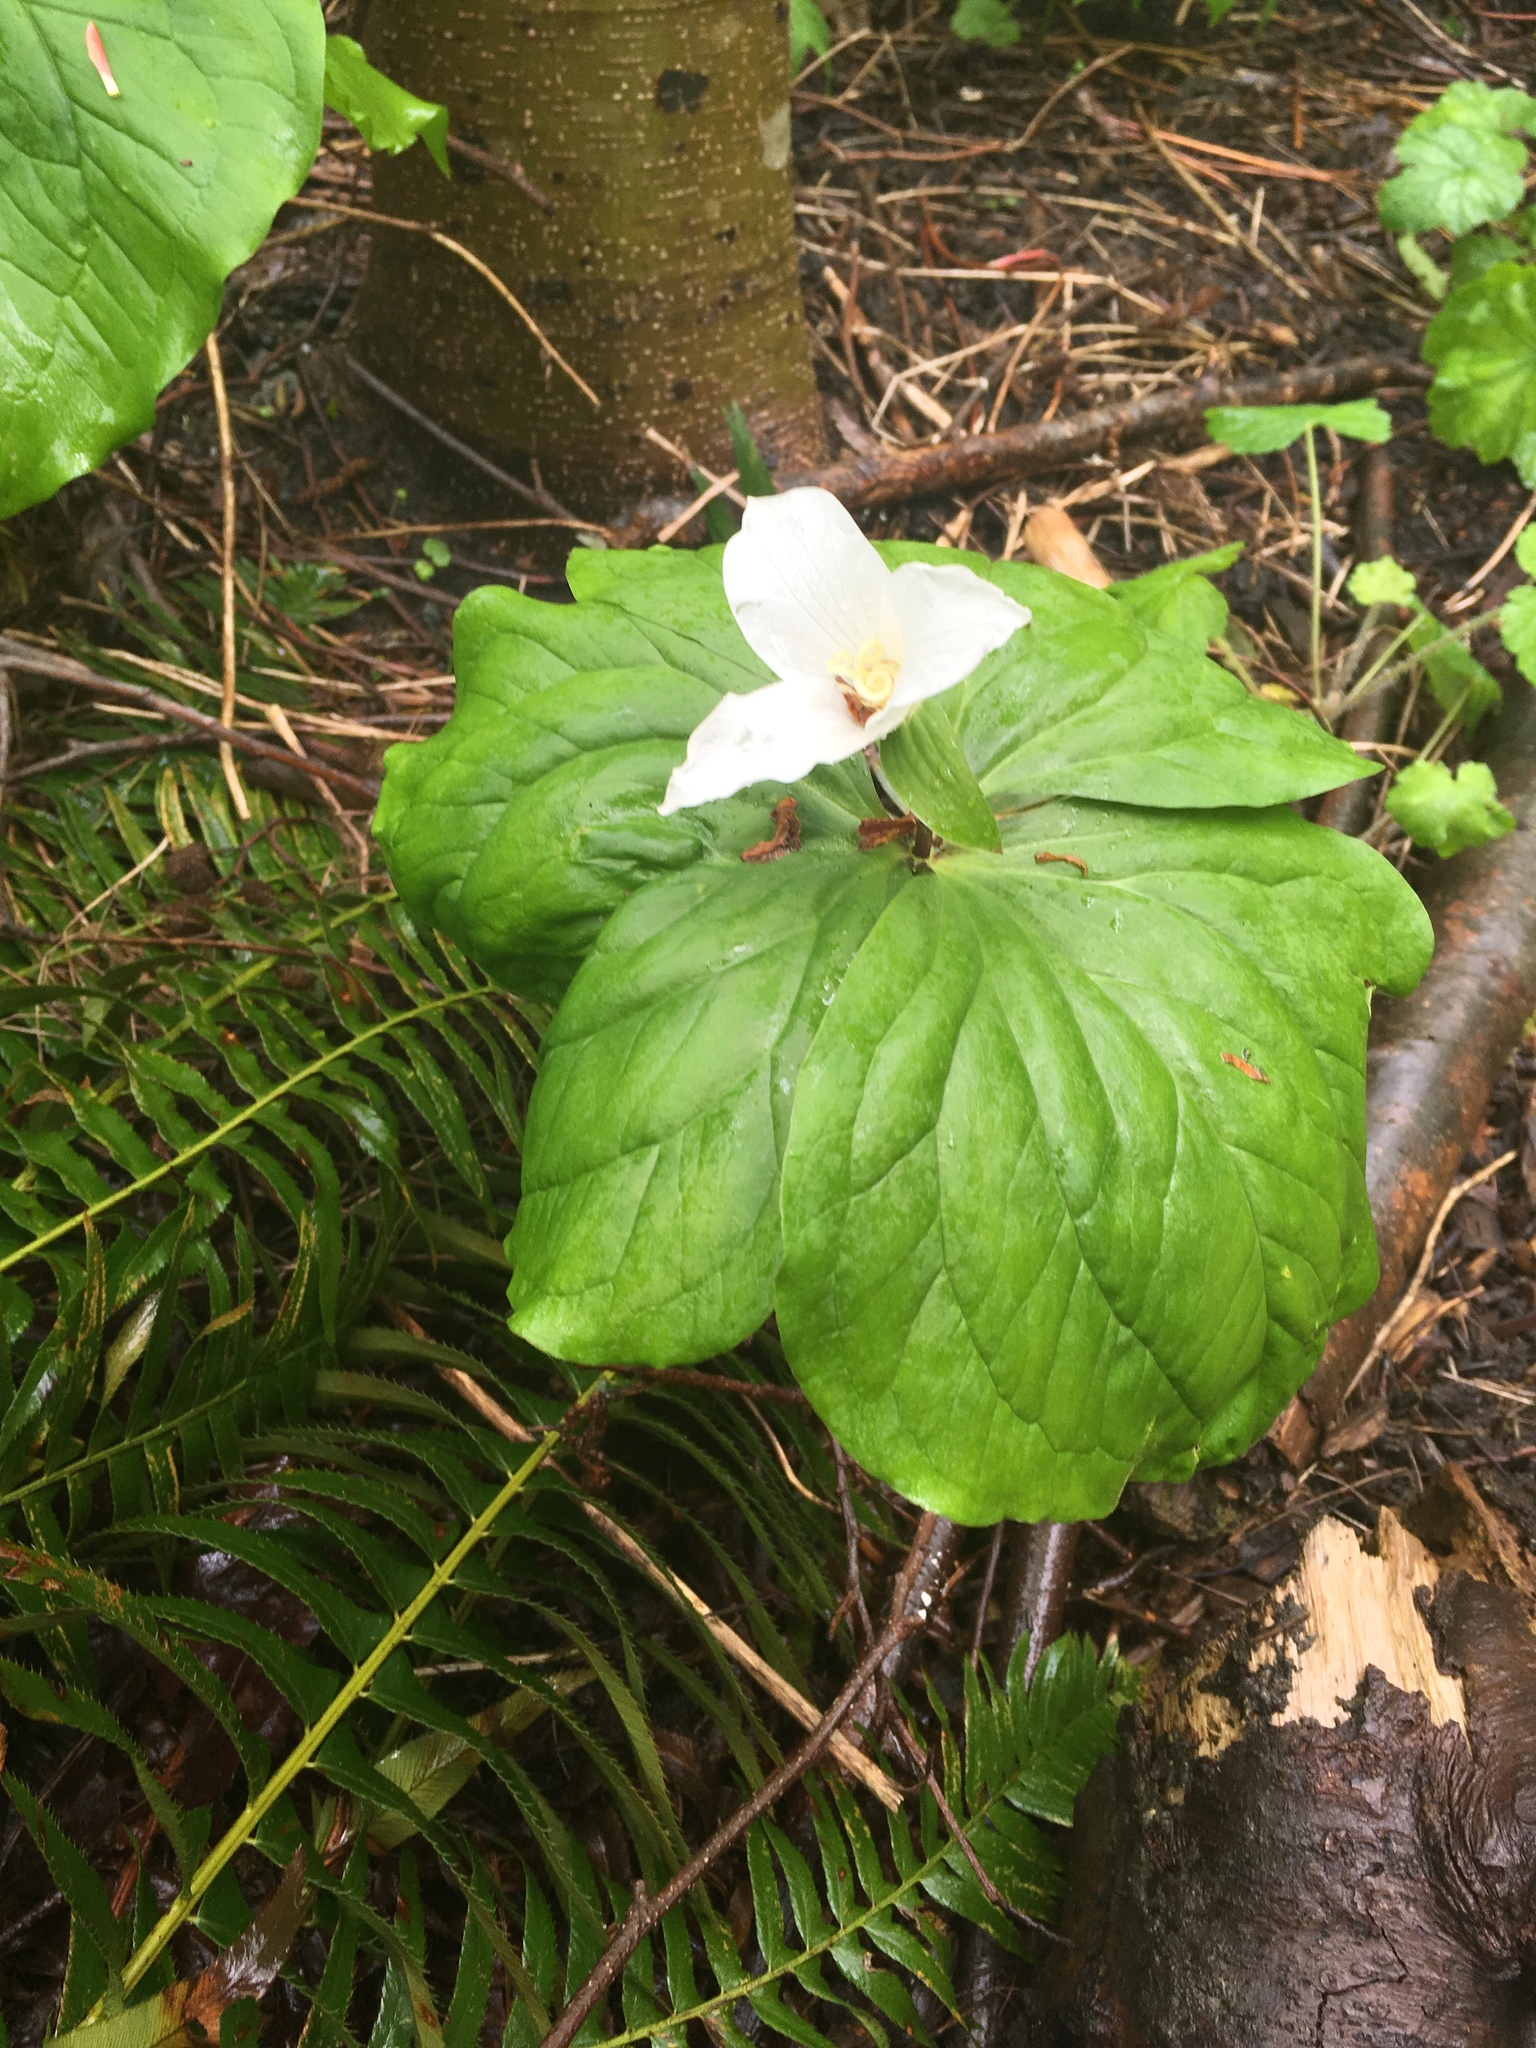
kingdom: Plantae
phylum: Tracheophyta
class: Liliopsida
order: Liliales
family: Melanthiaceae
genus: Trillium
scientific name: Trillium ovatum
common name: Pacific trillium
